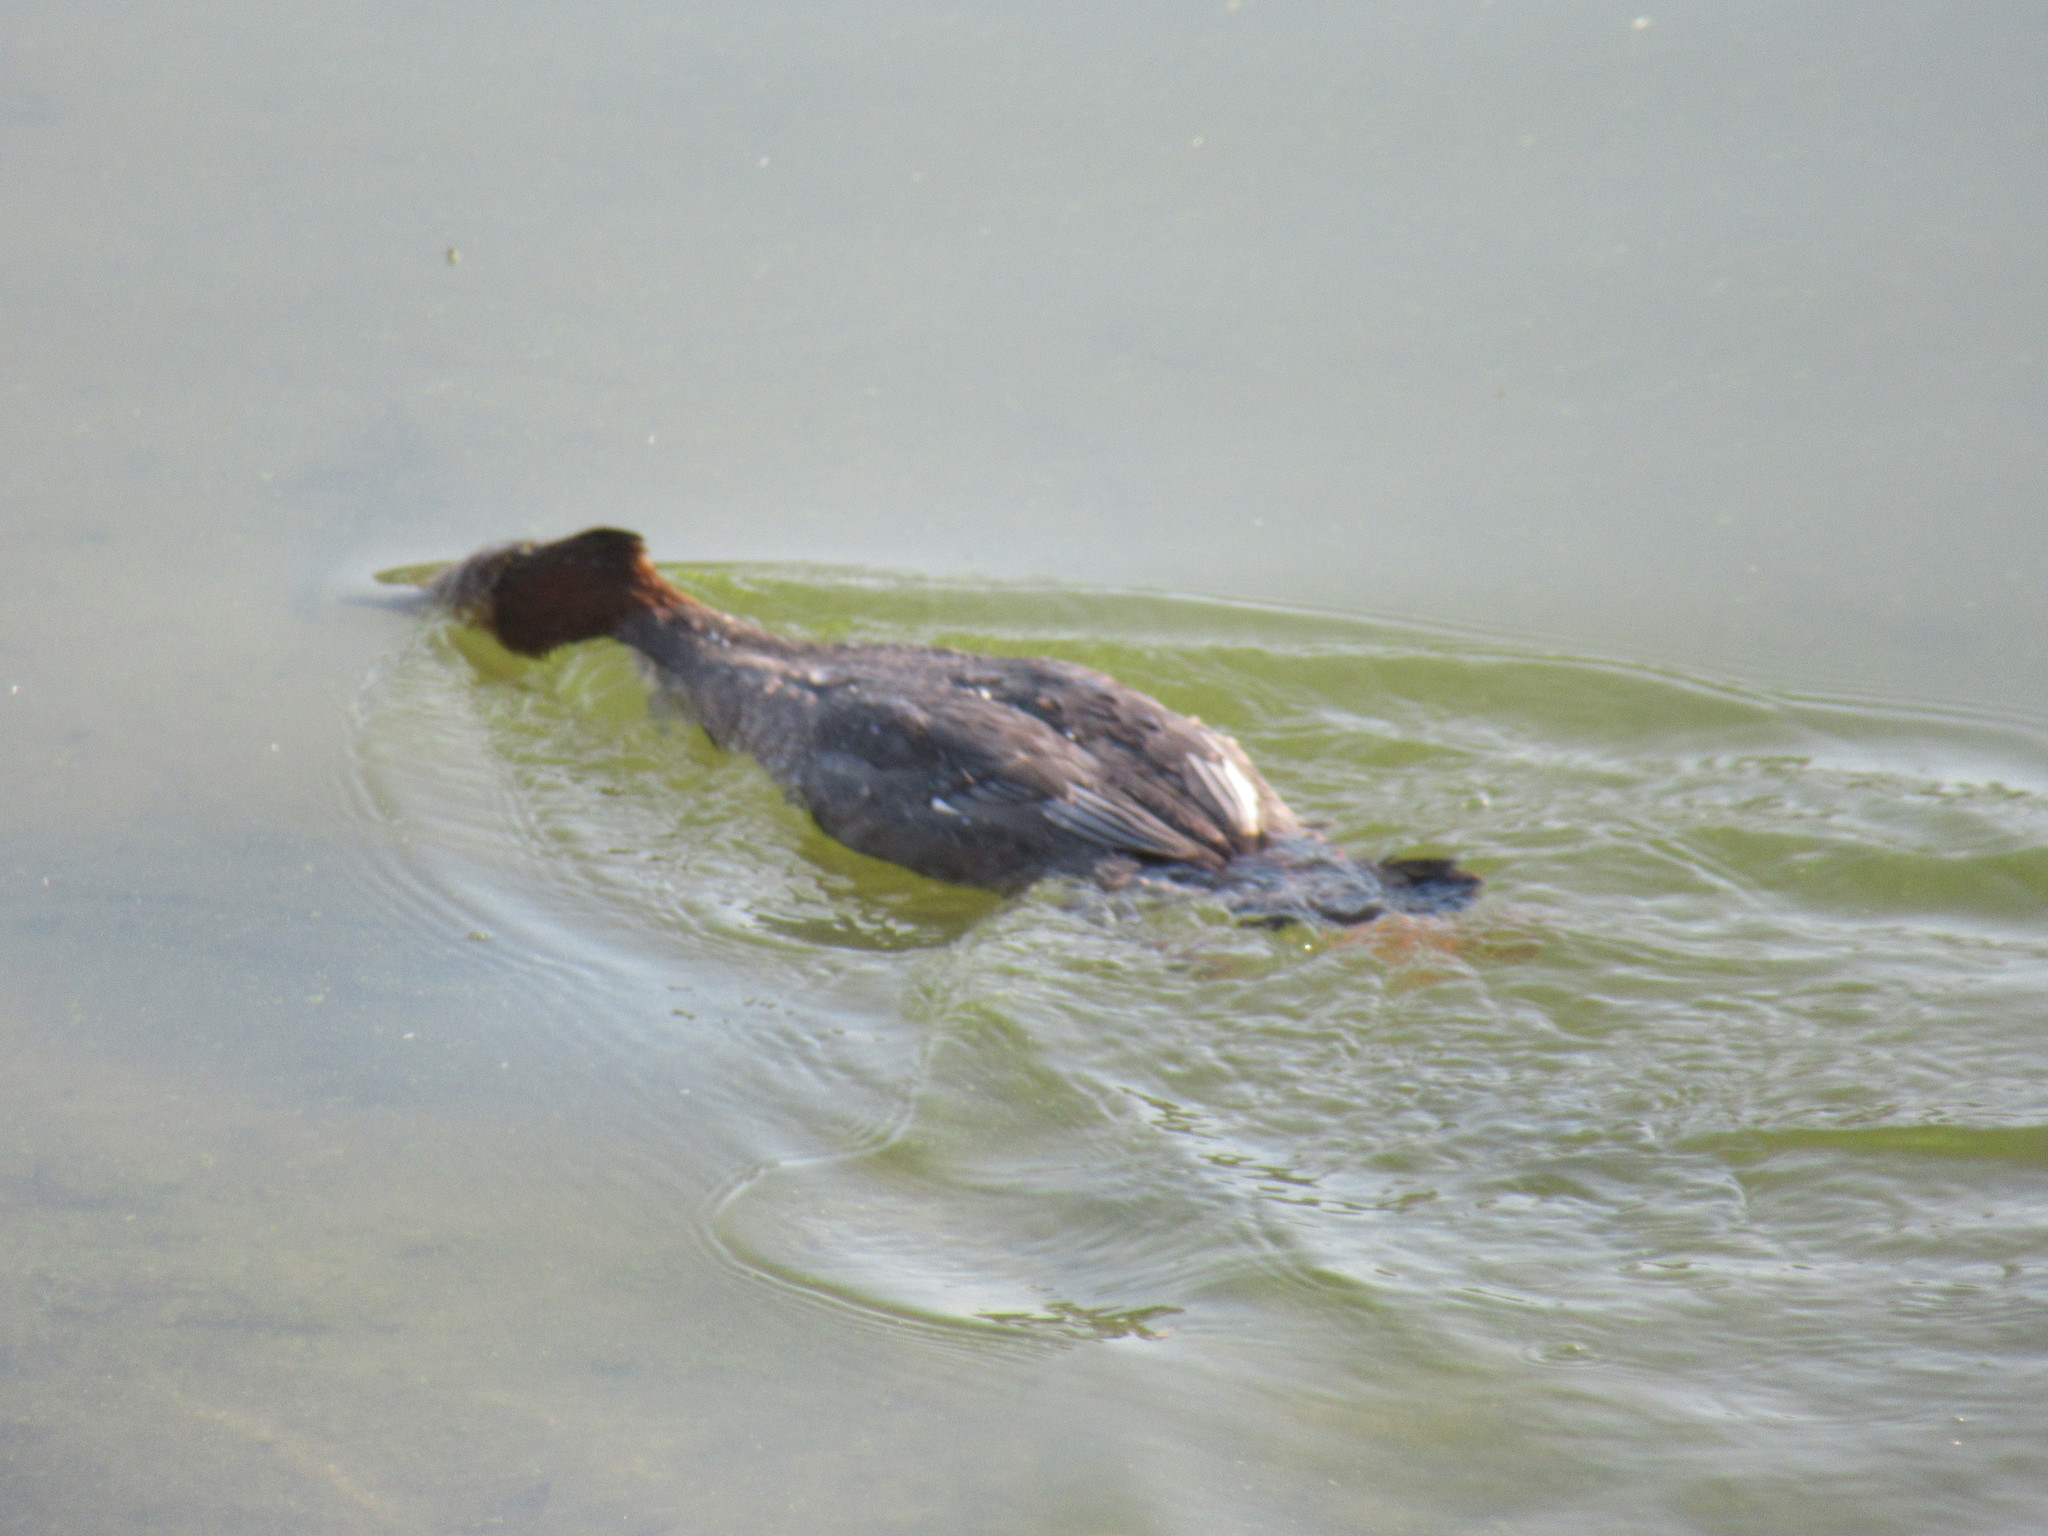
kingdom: Animalia
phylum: Chordata
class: Aves
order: Anseriformes
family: Anatidae
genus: Mergus
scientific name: Mergus merganser
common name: Common merganser
